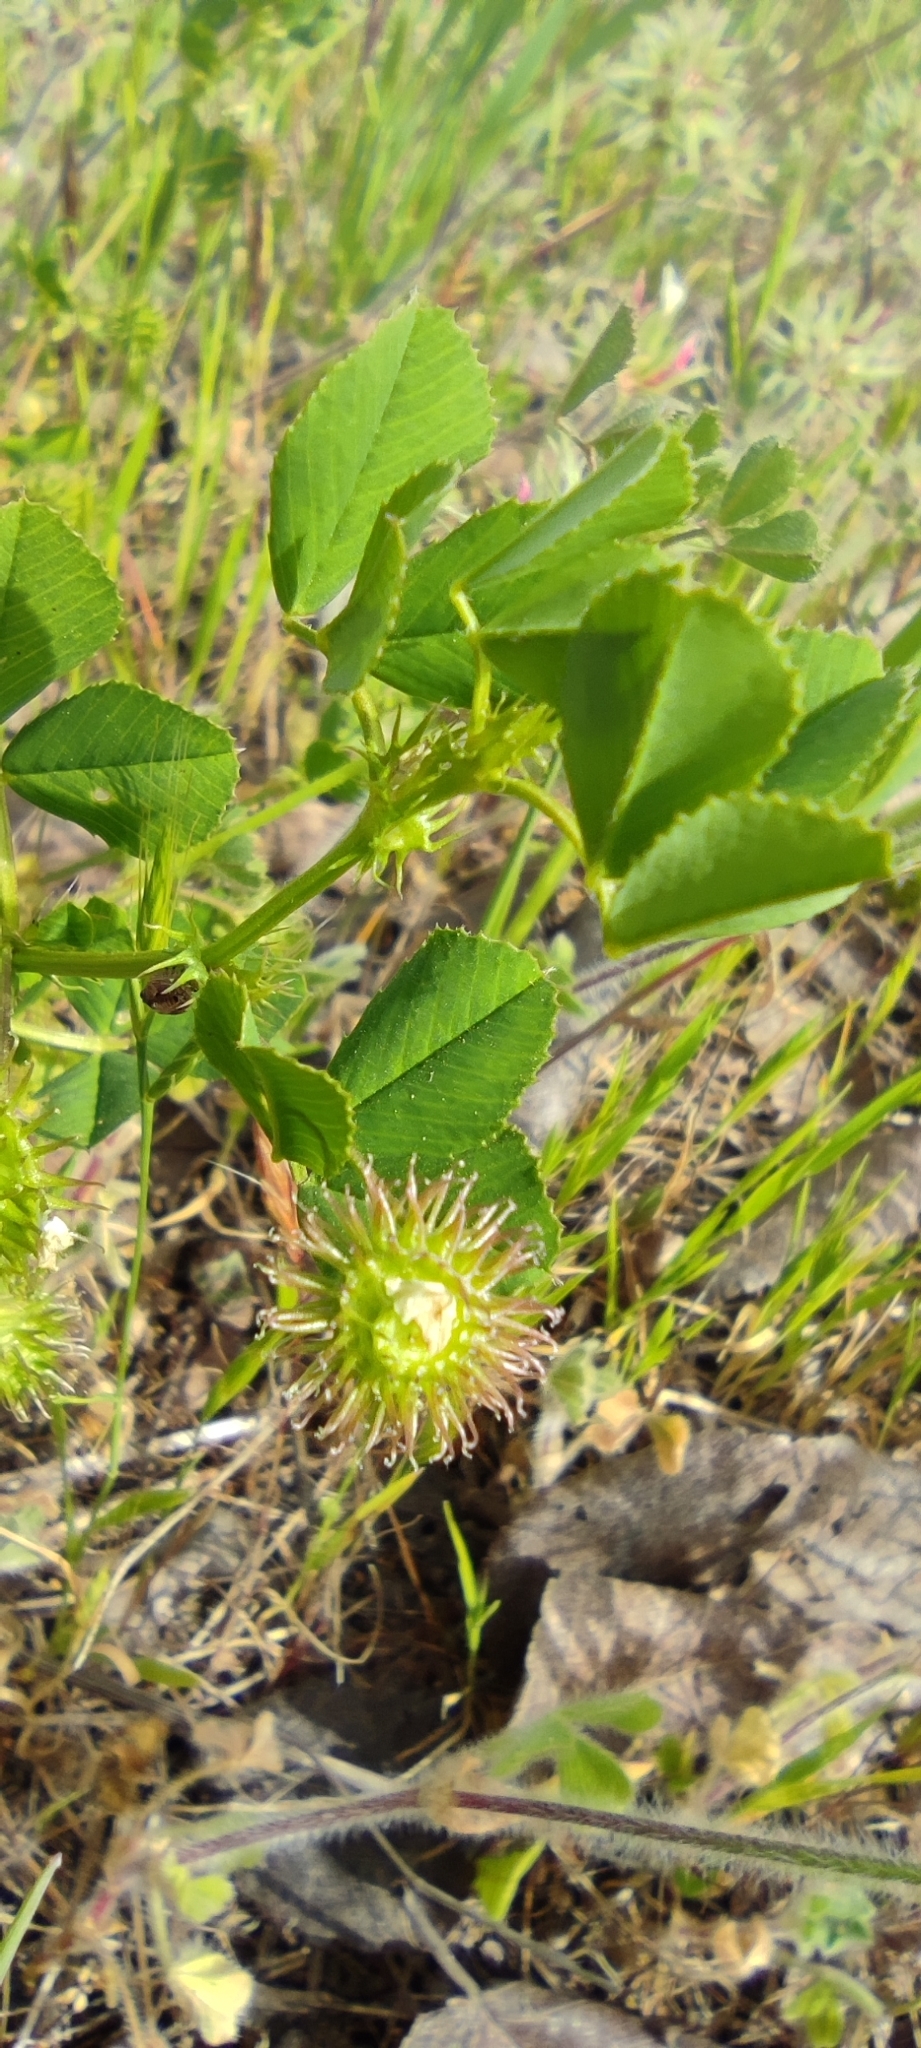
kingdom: Plantae
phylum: Tracheophyta
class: Magnoliopsida
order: Fabales
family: Fabaceae
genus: Medicago
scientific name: Medicago polymorpha
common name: Burclover
